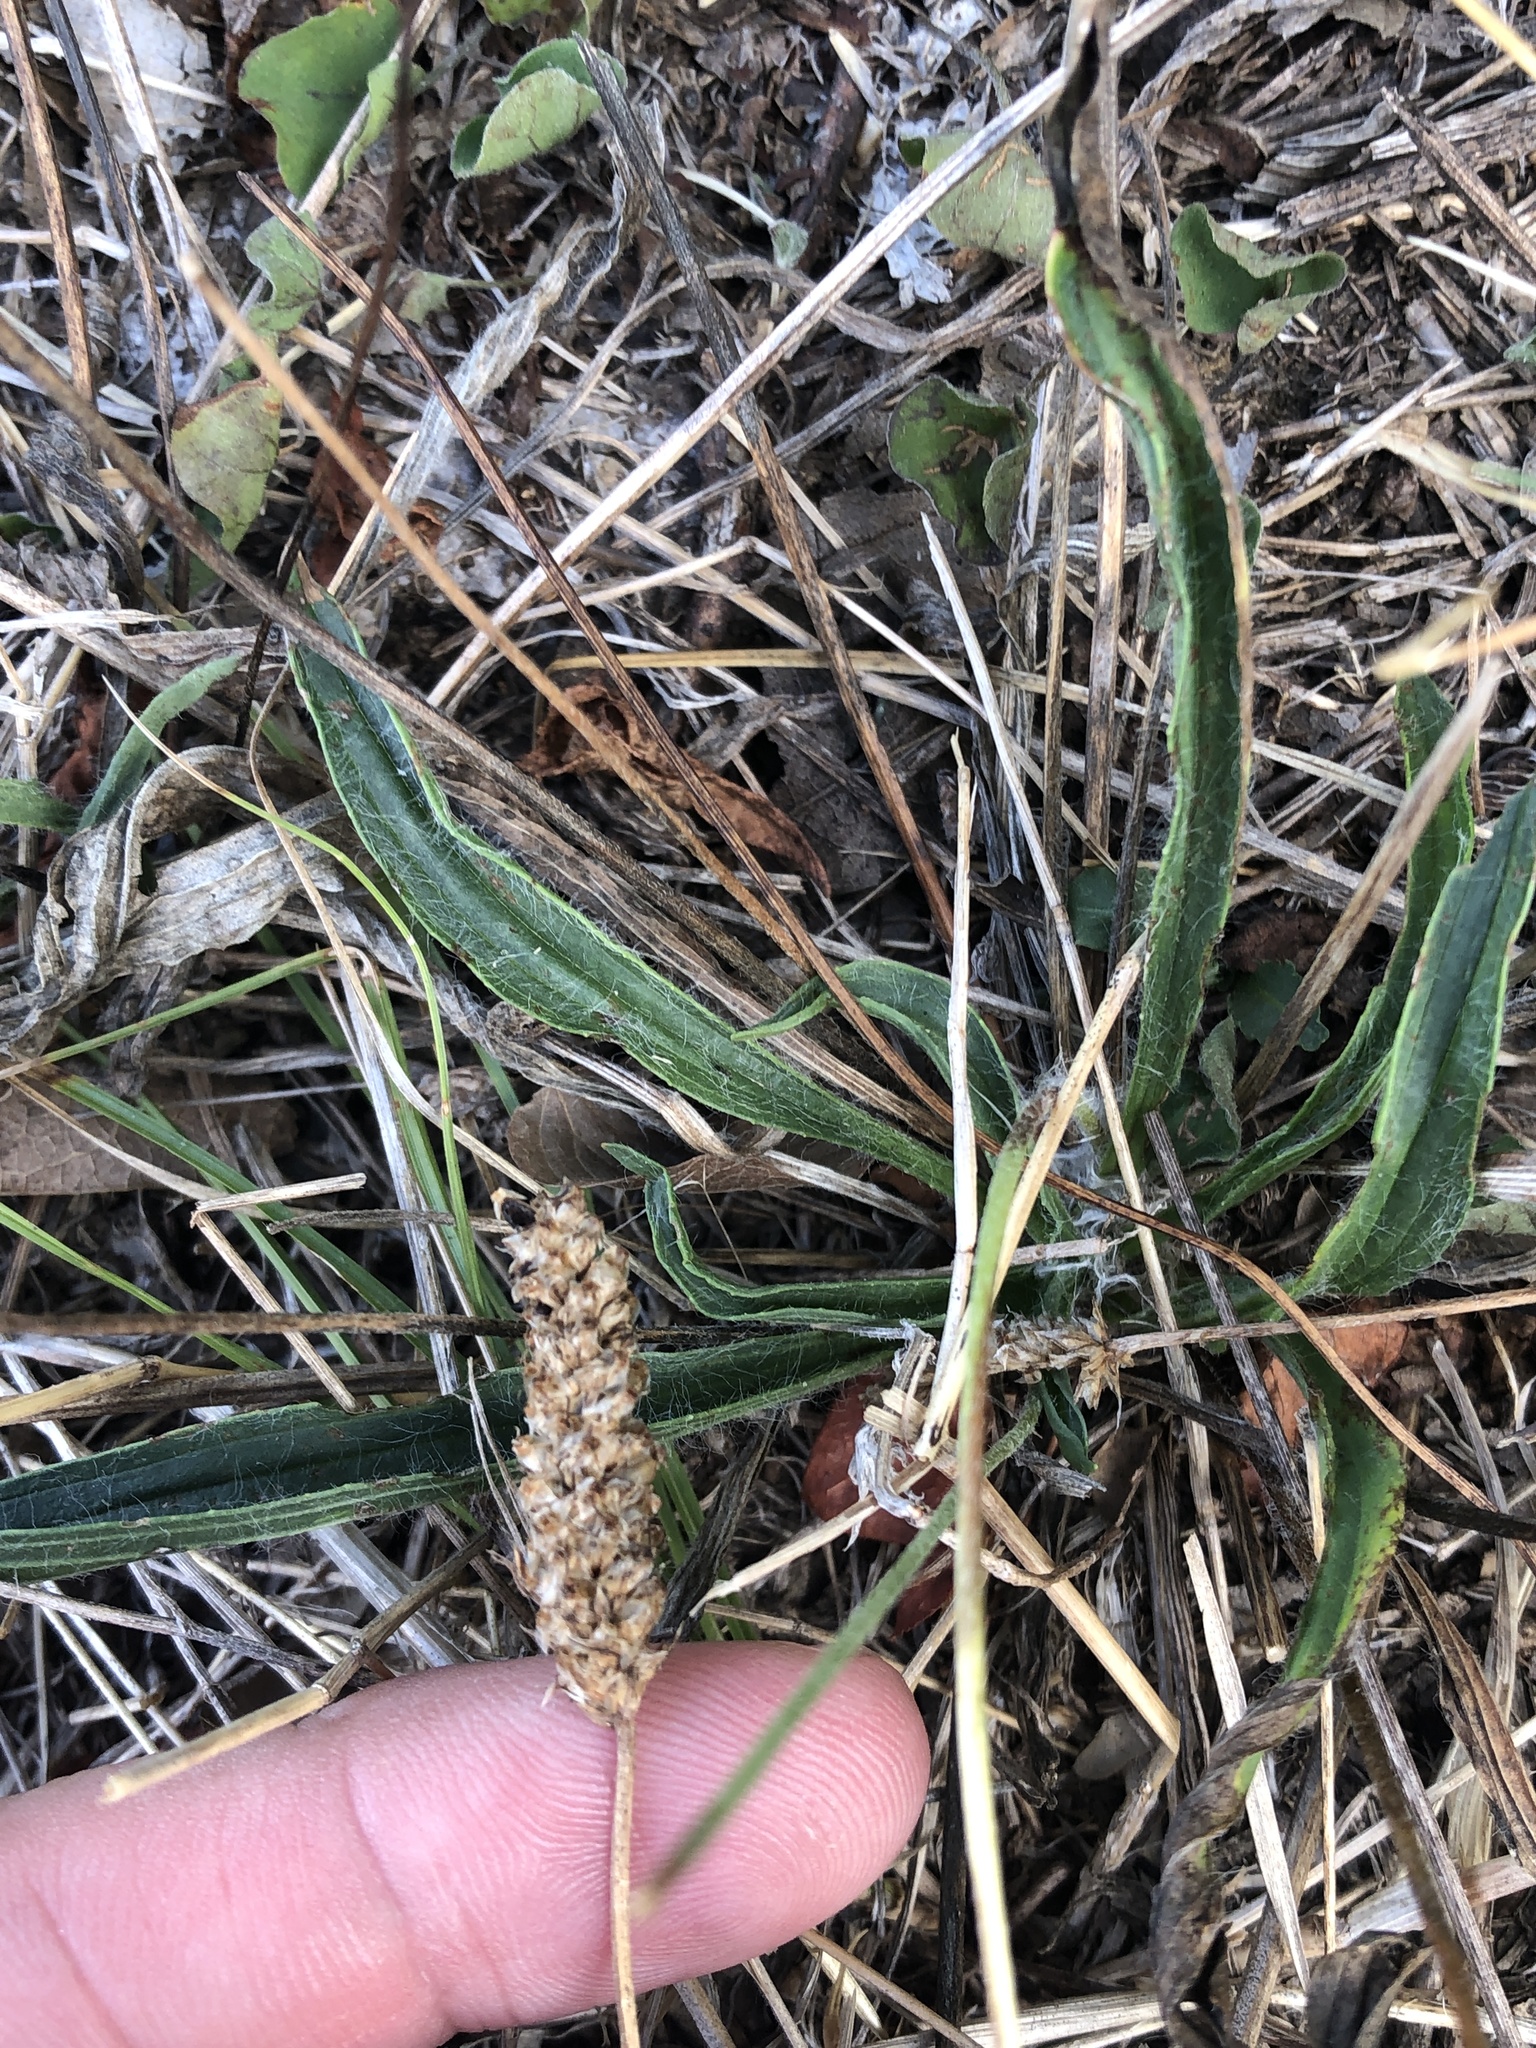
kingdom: Plantae
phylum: Tracheophyta
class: Magnoliopsida
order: Lamiales
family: Plantaginaceae
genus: Plantago
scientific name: Plantago lanceolata
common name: Ribwort plantain
